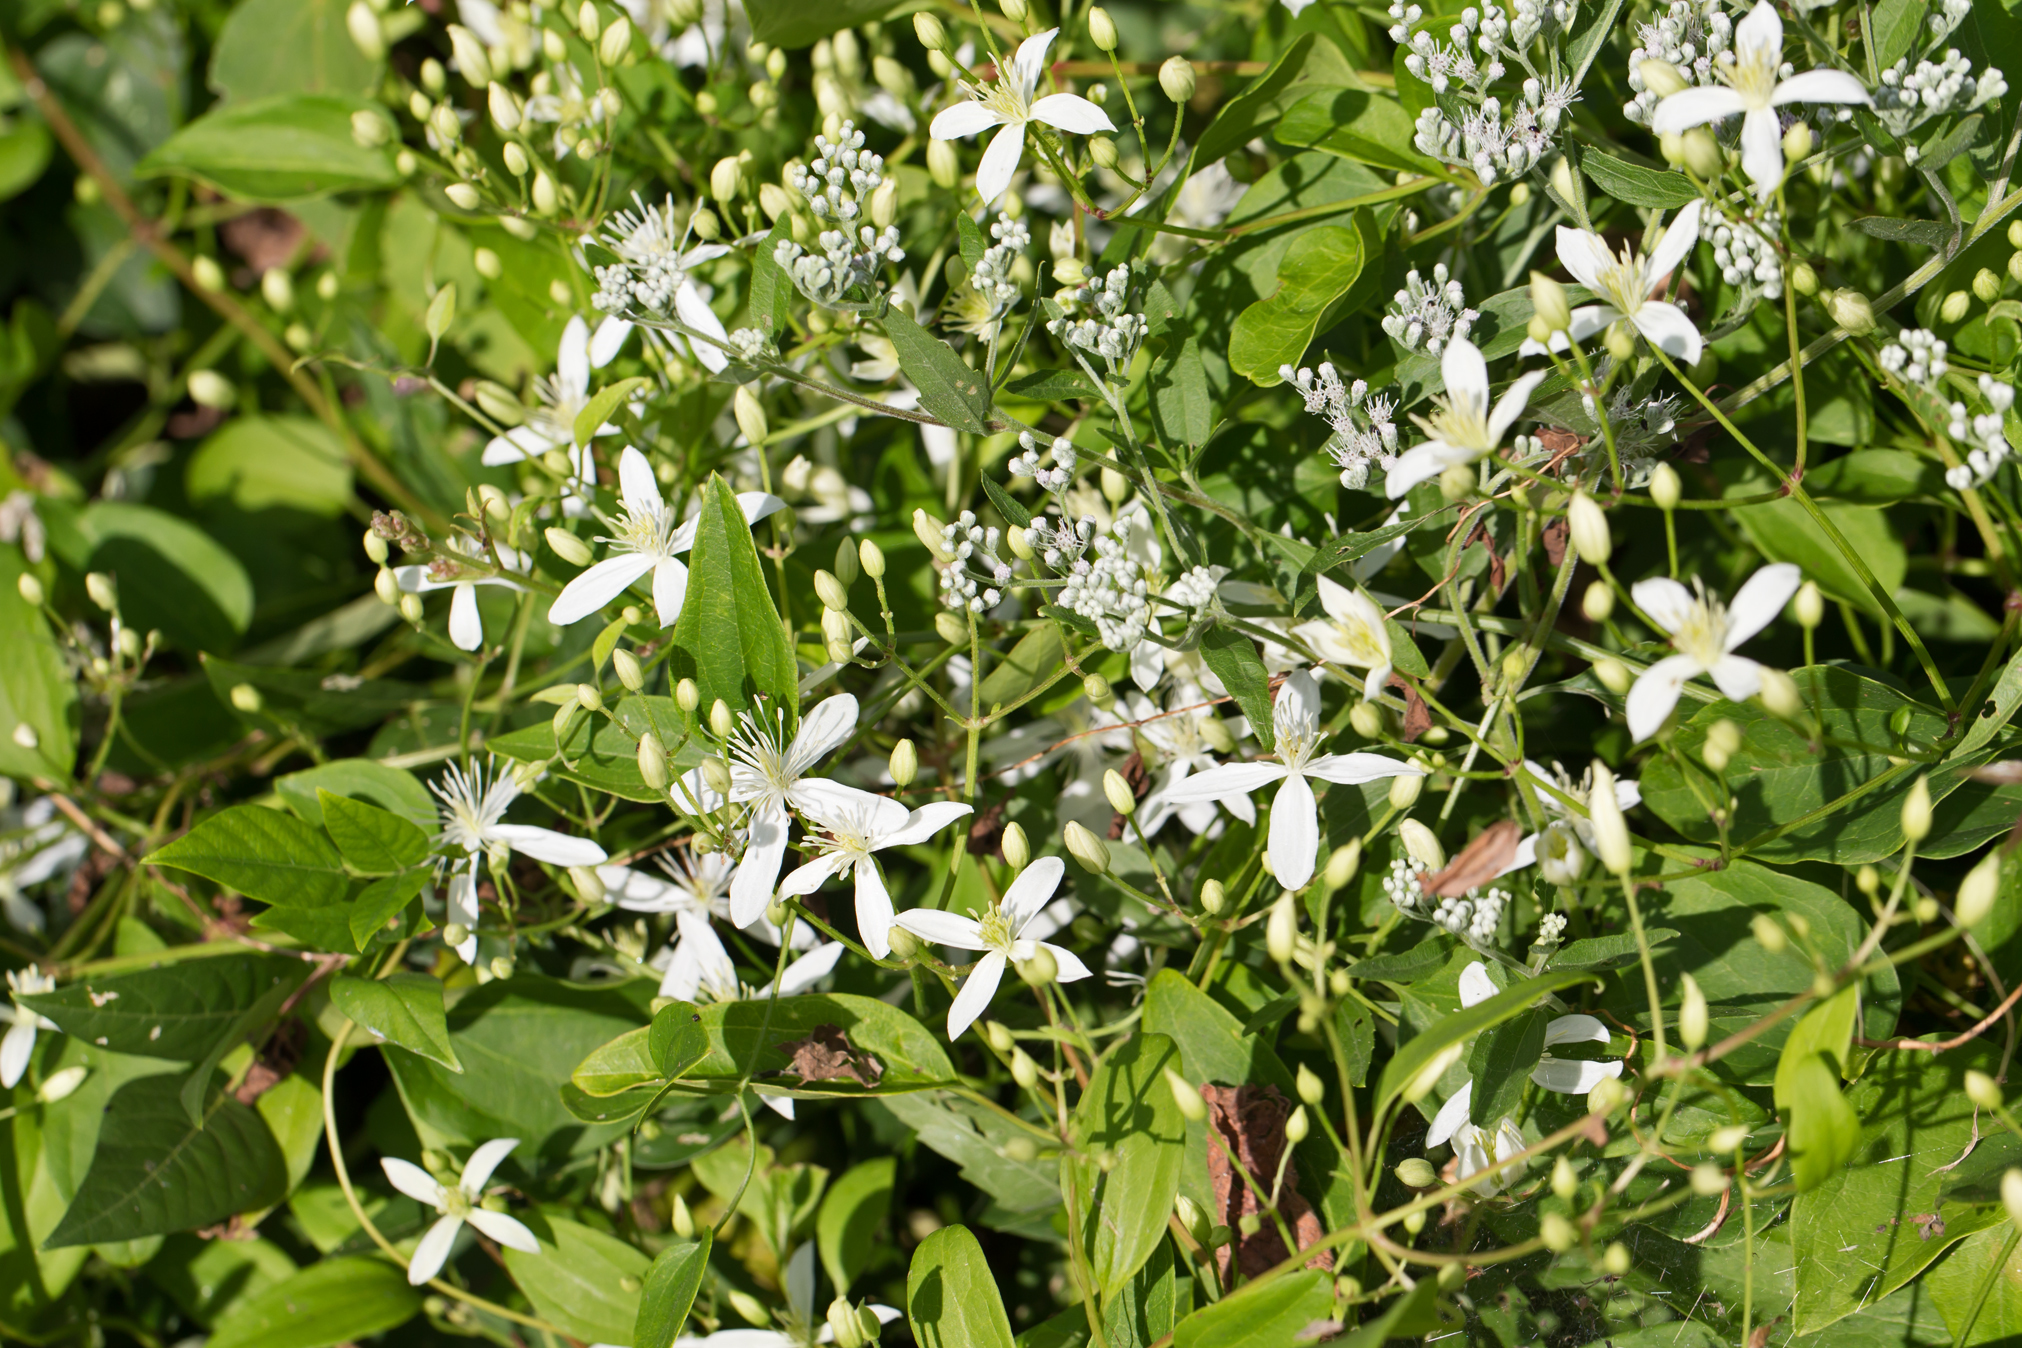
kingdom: Plantae
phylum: Tracheophyta
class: Magnoliopsida
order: Ranunculales
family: Ranunculaceae
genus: Clematis
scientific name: Clematis terniflora
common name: Sweet autumn clematis
